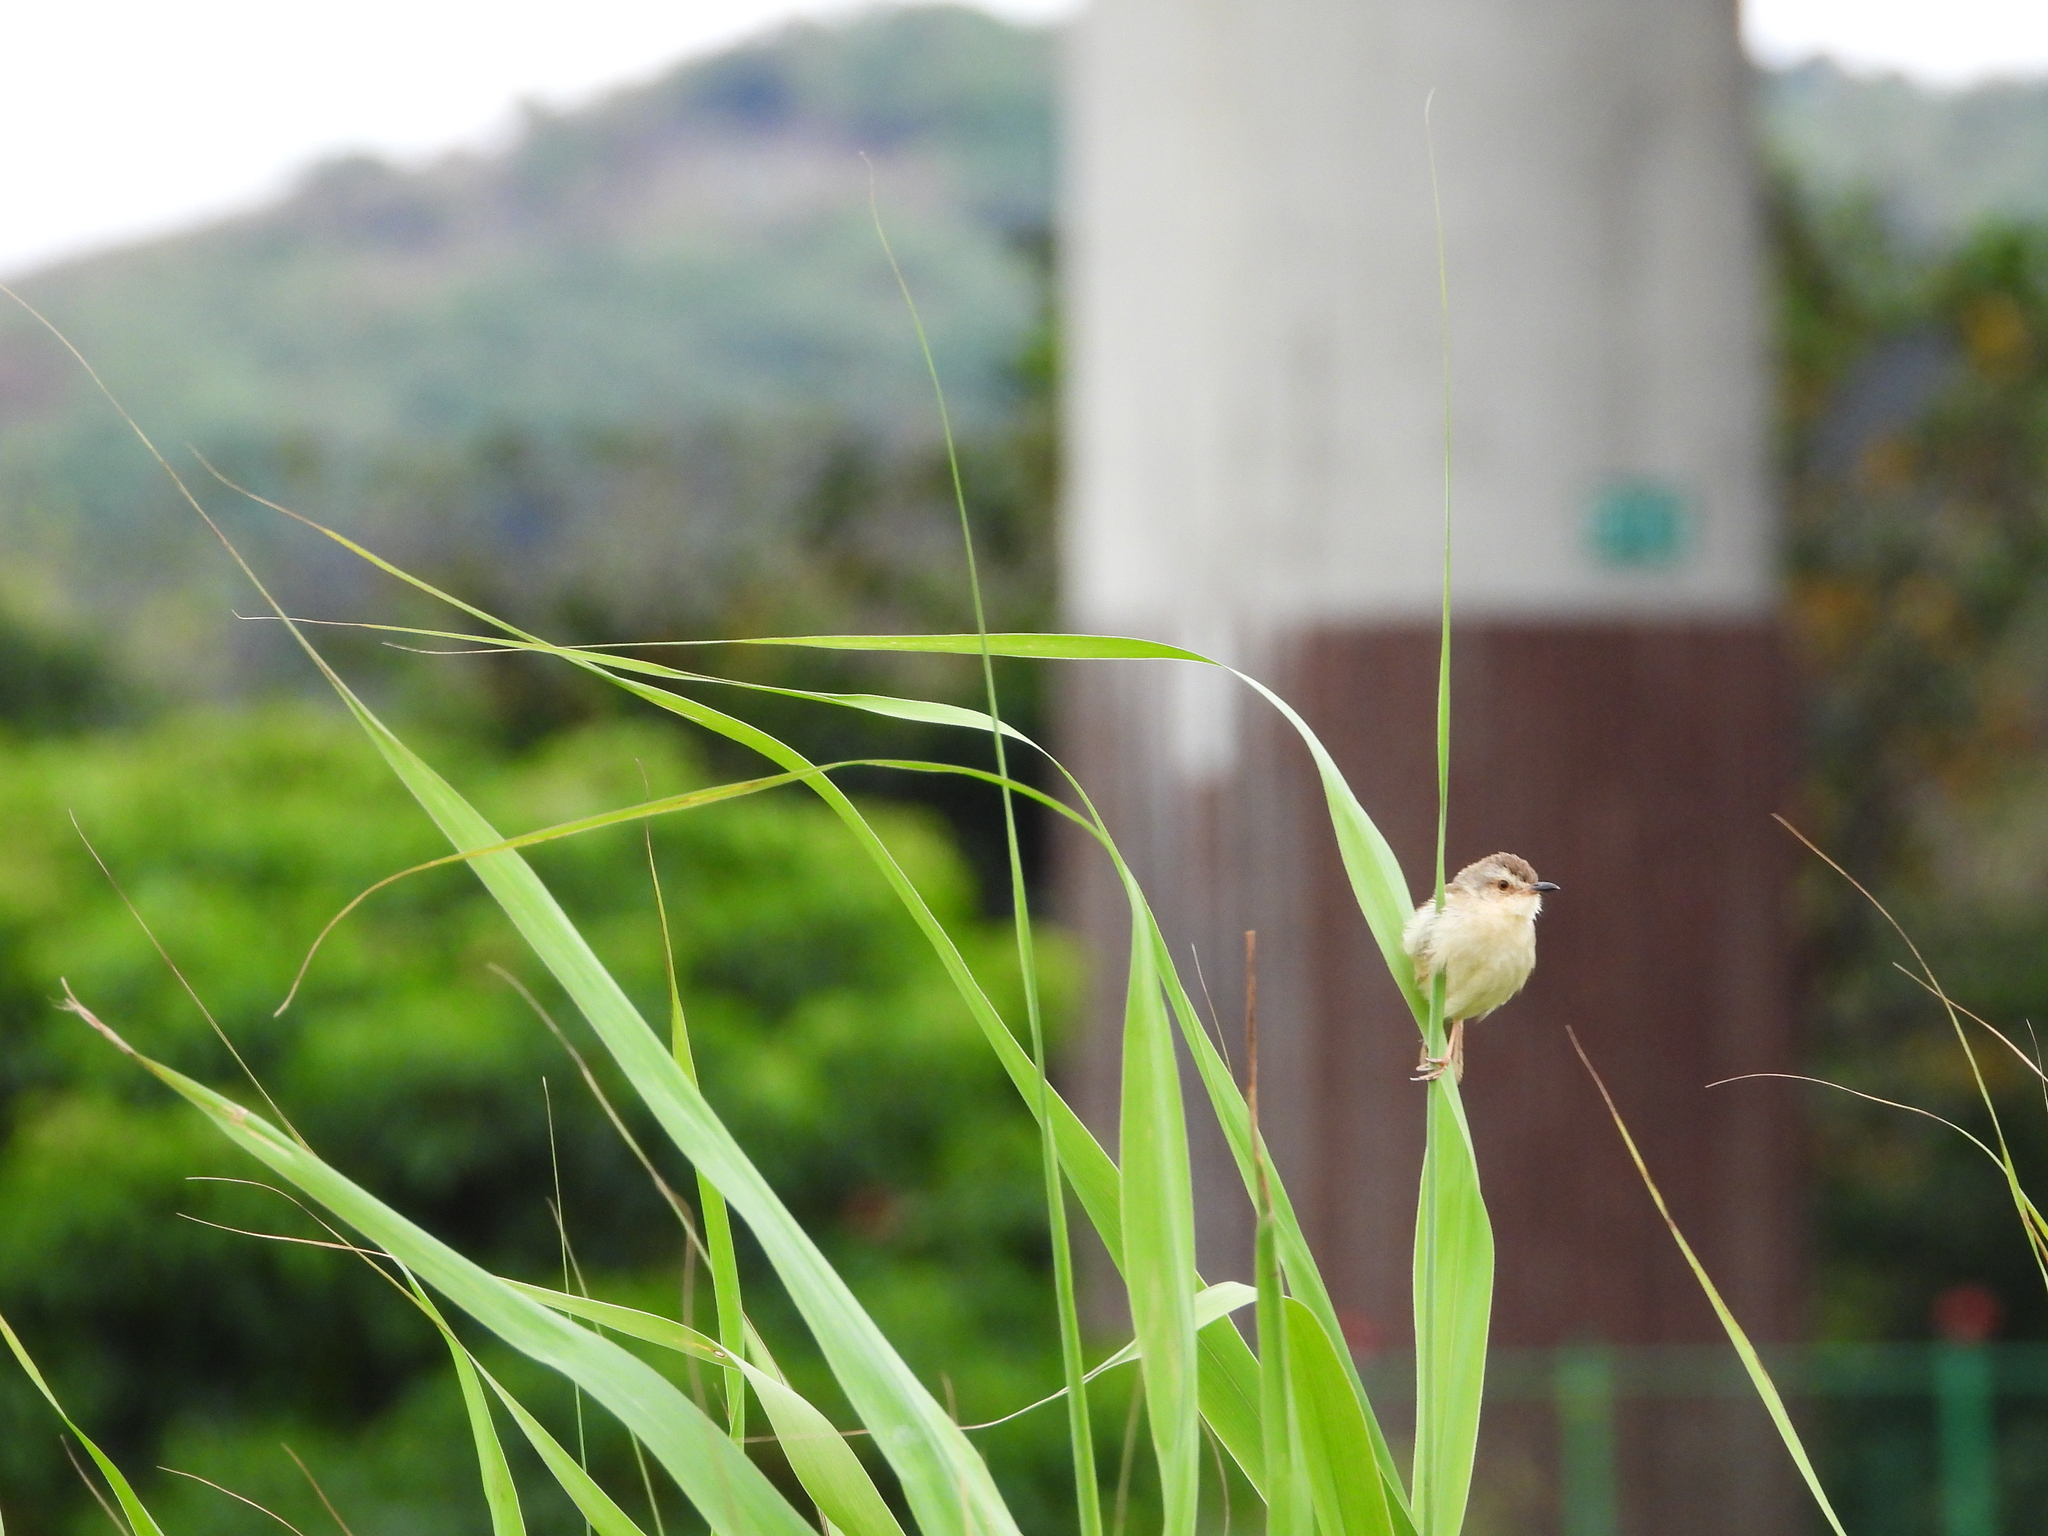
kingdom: Animalia
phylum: Chordata
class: Aves
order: Passeriformes
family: Cisticolidae
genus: Prinia
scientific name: Prinia inornata
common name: Plain prinia
